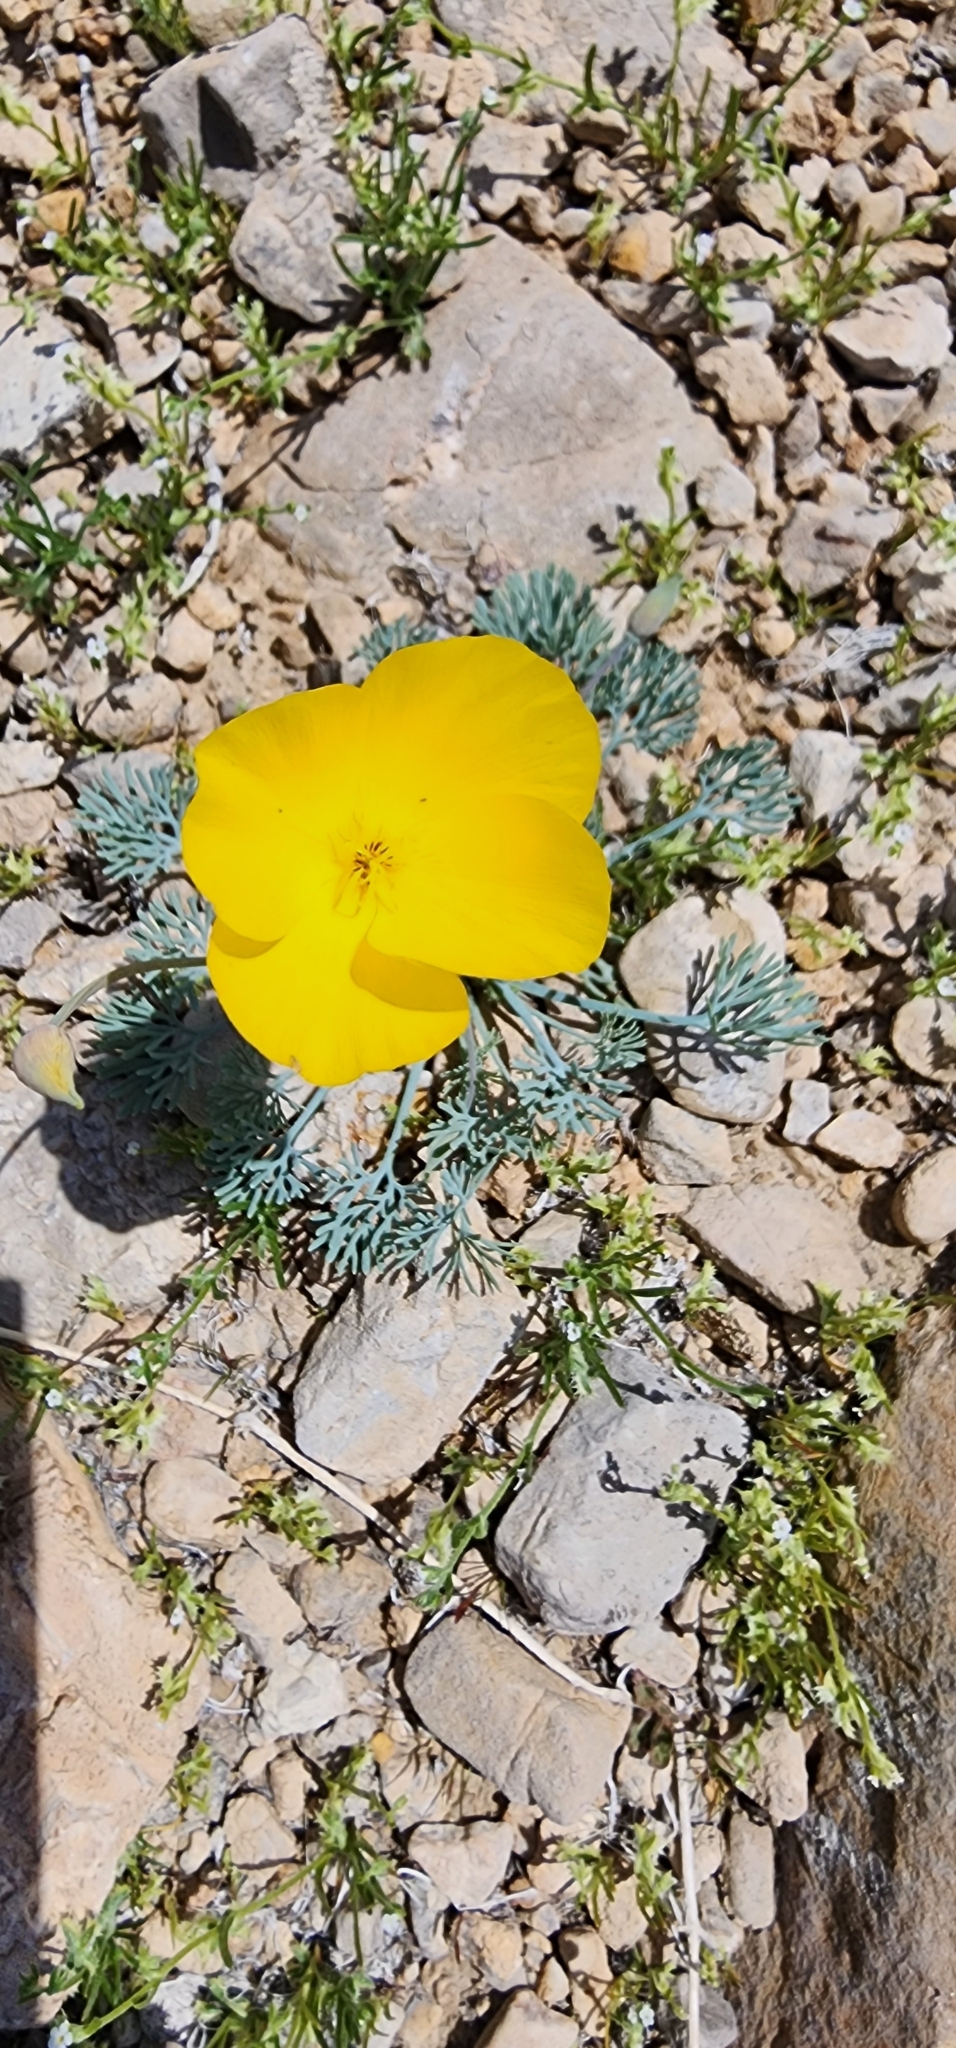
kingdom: Plantae
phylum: Tracheophyta
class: Magnoliopsida
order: Ranunculales
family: Papaveraceae
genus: Eschscholzia
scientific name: Eschscholzia glyptosperma
